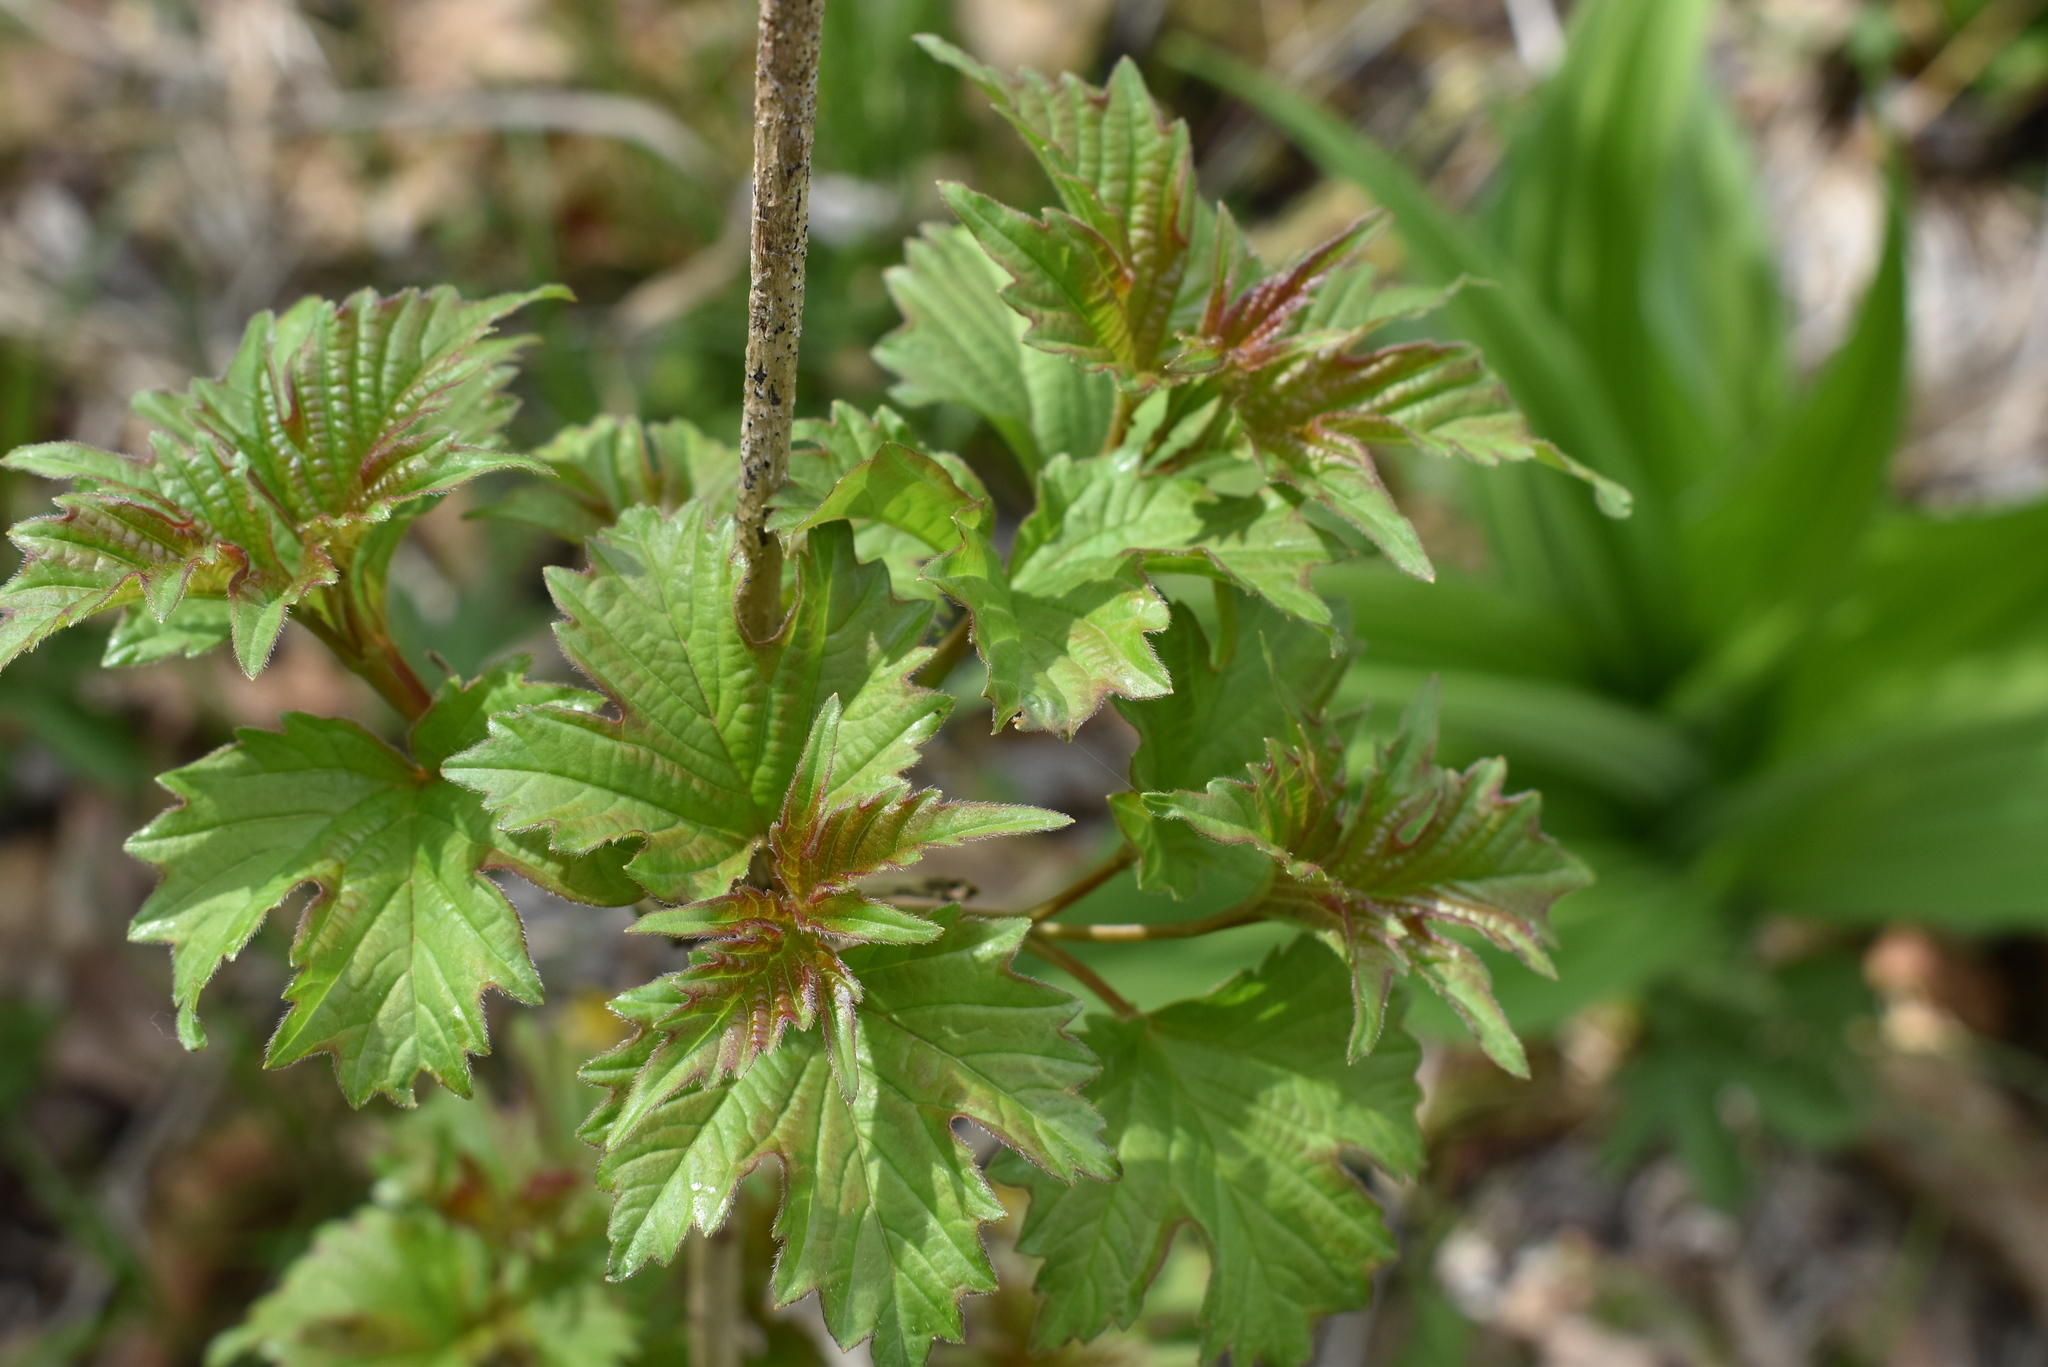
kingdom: Plantae
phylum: Tracheophyta
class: Magnoliopsida
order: Dipsacales
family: Viburnaceae
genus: Viburnum
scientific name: Viburnum sargentii
